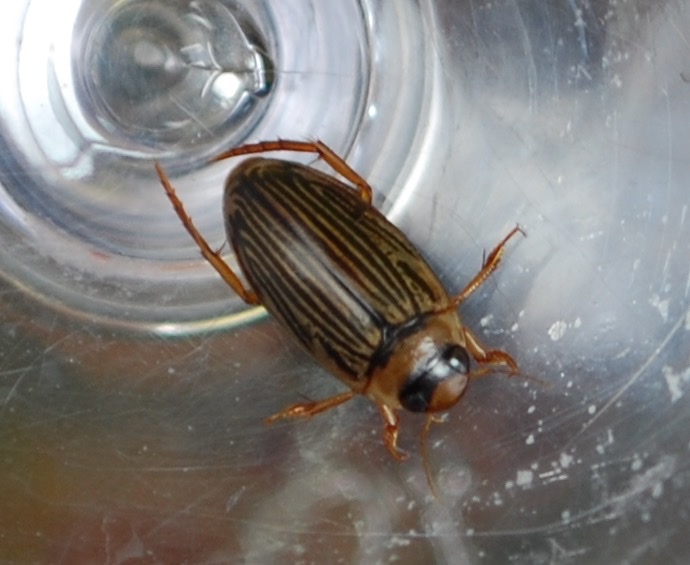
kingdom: Animalia
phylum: Arthropoda
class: Insecta
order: Coleoptera
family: Dytiscidae
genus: Lancetes
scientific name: Lancetes lanceolatus
